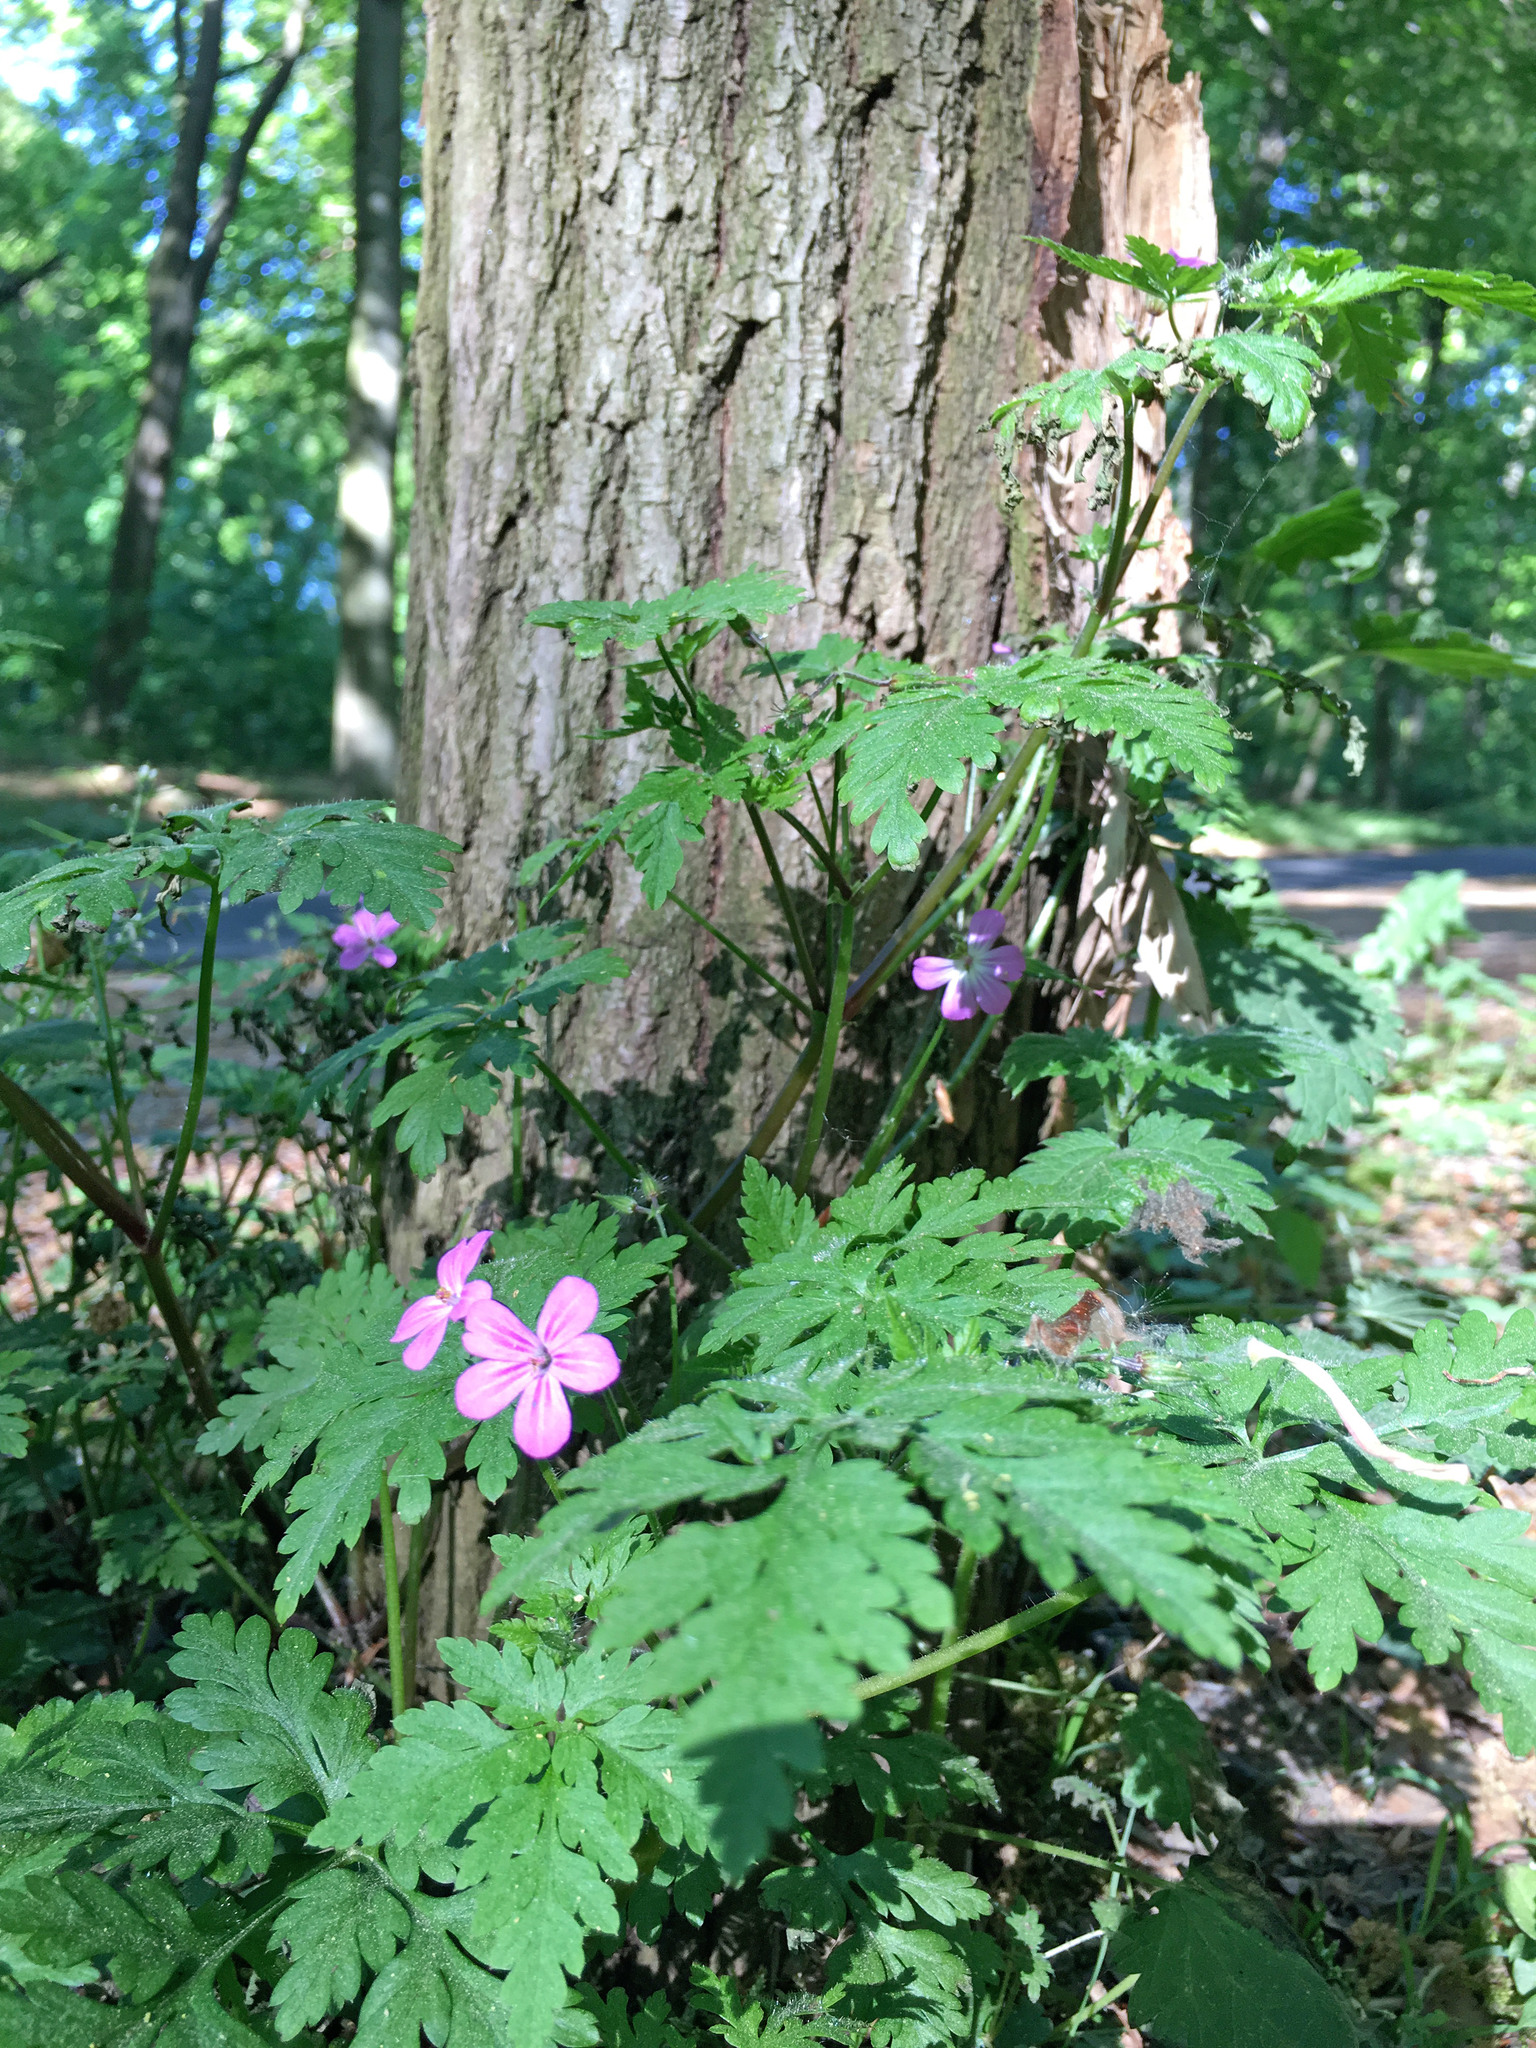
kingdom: Plantae
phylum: Tracheophyta
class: Magnoliopsida
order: Geraniales
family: Geraniaceae
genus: Geranium
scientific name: Geranium robertianum
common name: Herb-robert
